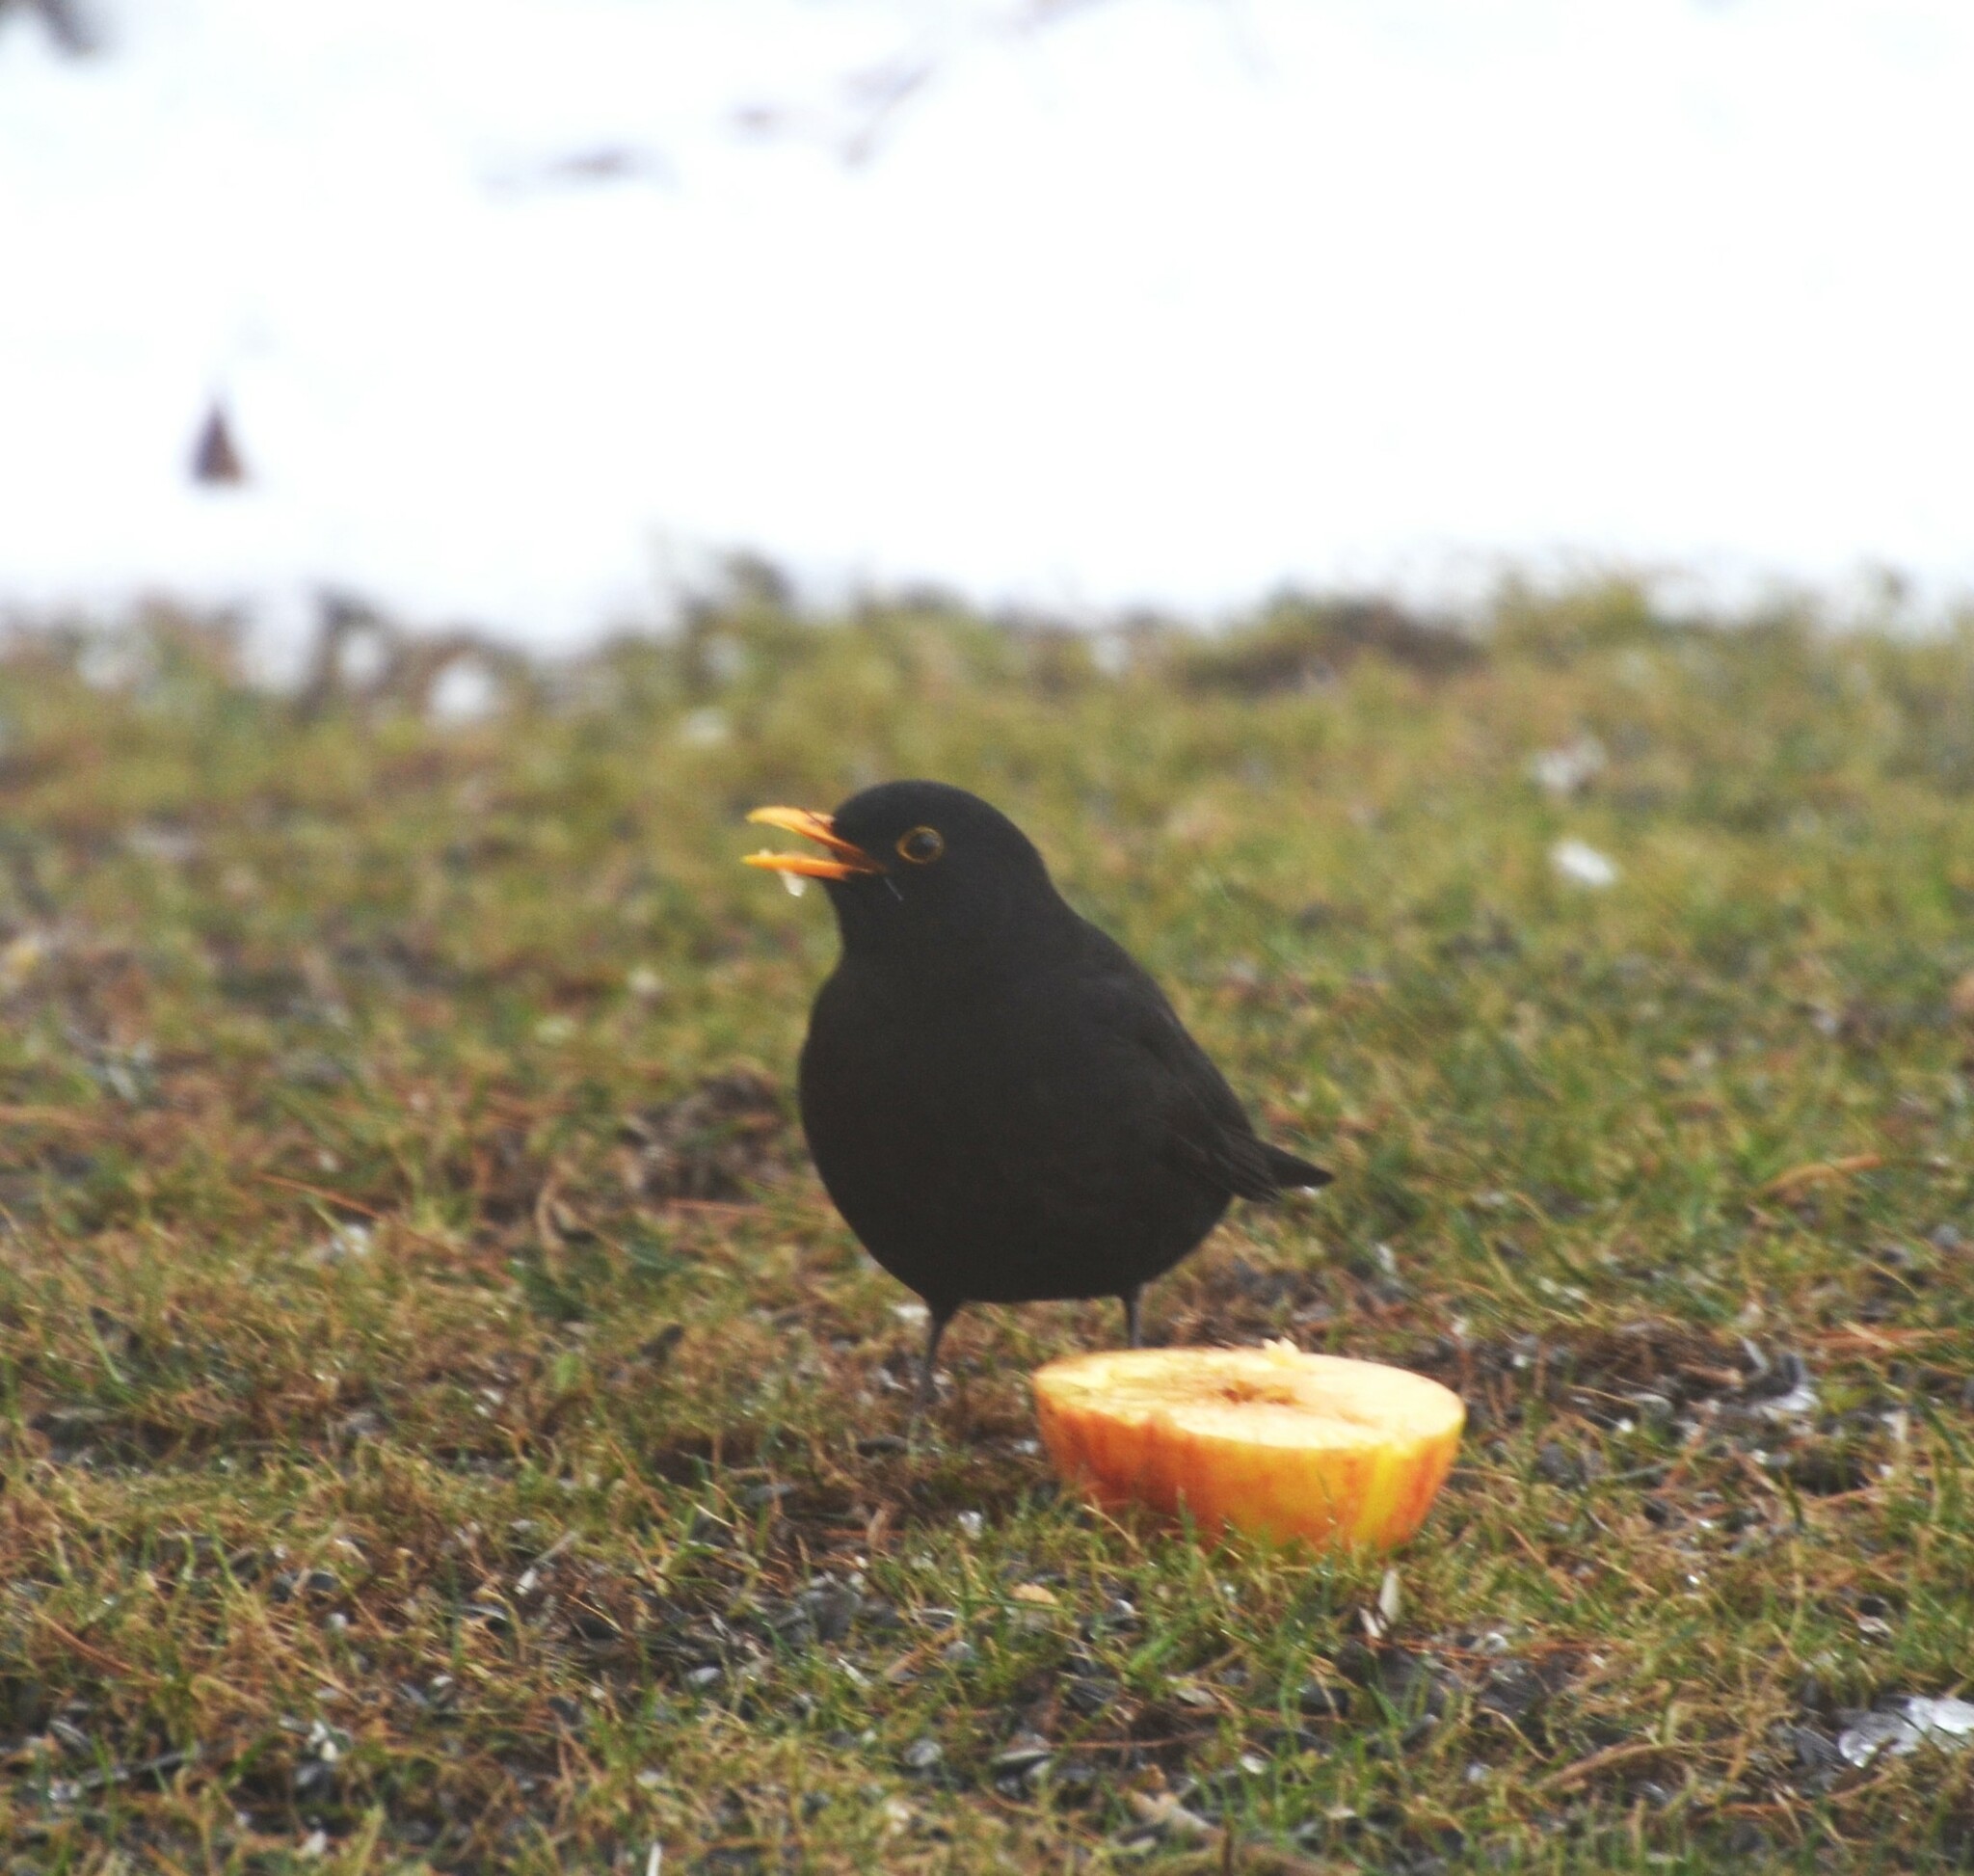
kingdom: Animalia
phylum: Chordata
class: Aves
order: Passeriformes
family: Turdidae
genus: Turdus
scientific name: Turdus merula
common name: Common blackbird
